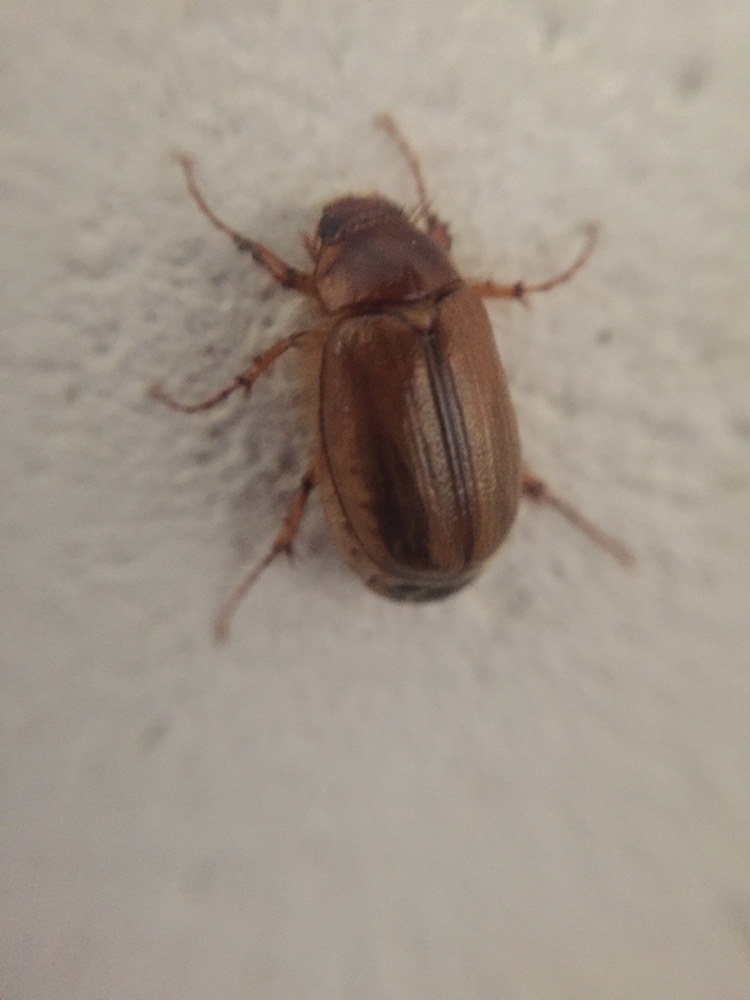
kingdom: Animalia
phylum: Arthropoda
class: Insecta
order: Coleoptera
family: Scarabaeidae
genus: Costelytra
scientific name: Costelytra zealandica
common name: New zealand grass grub
